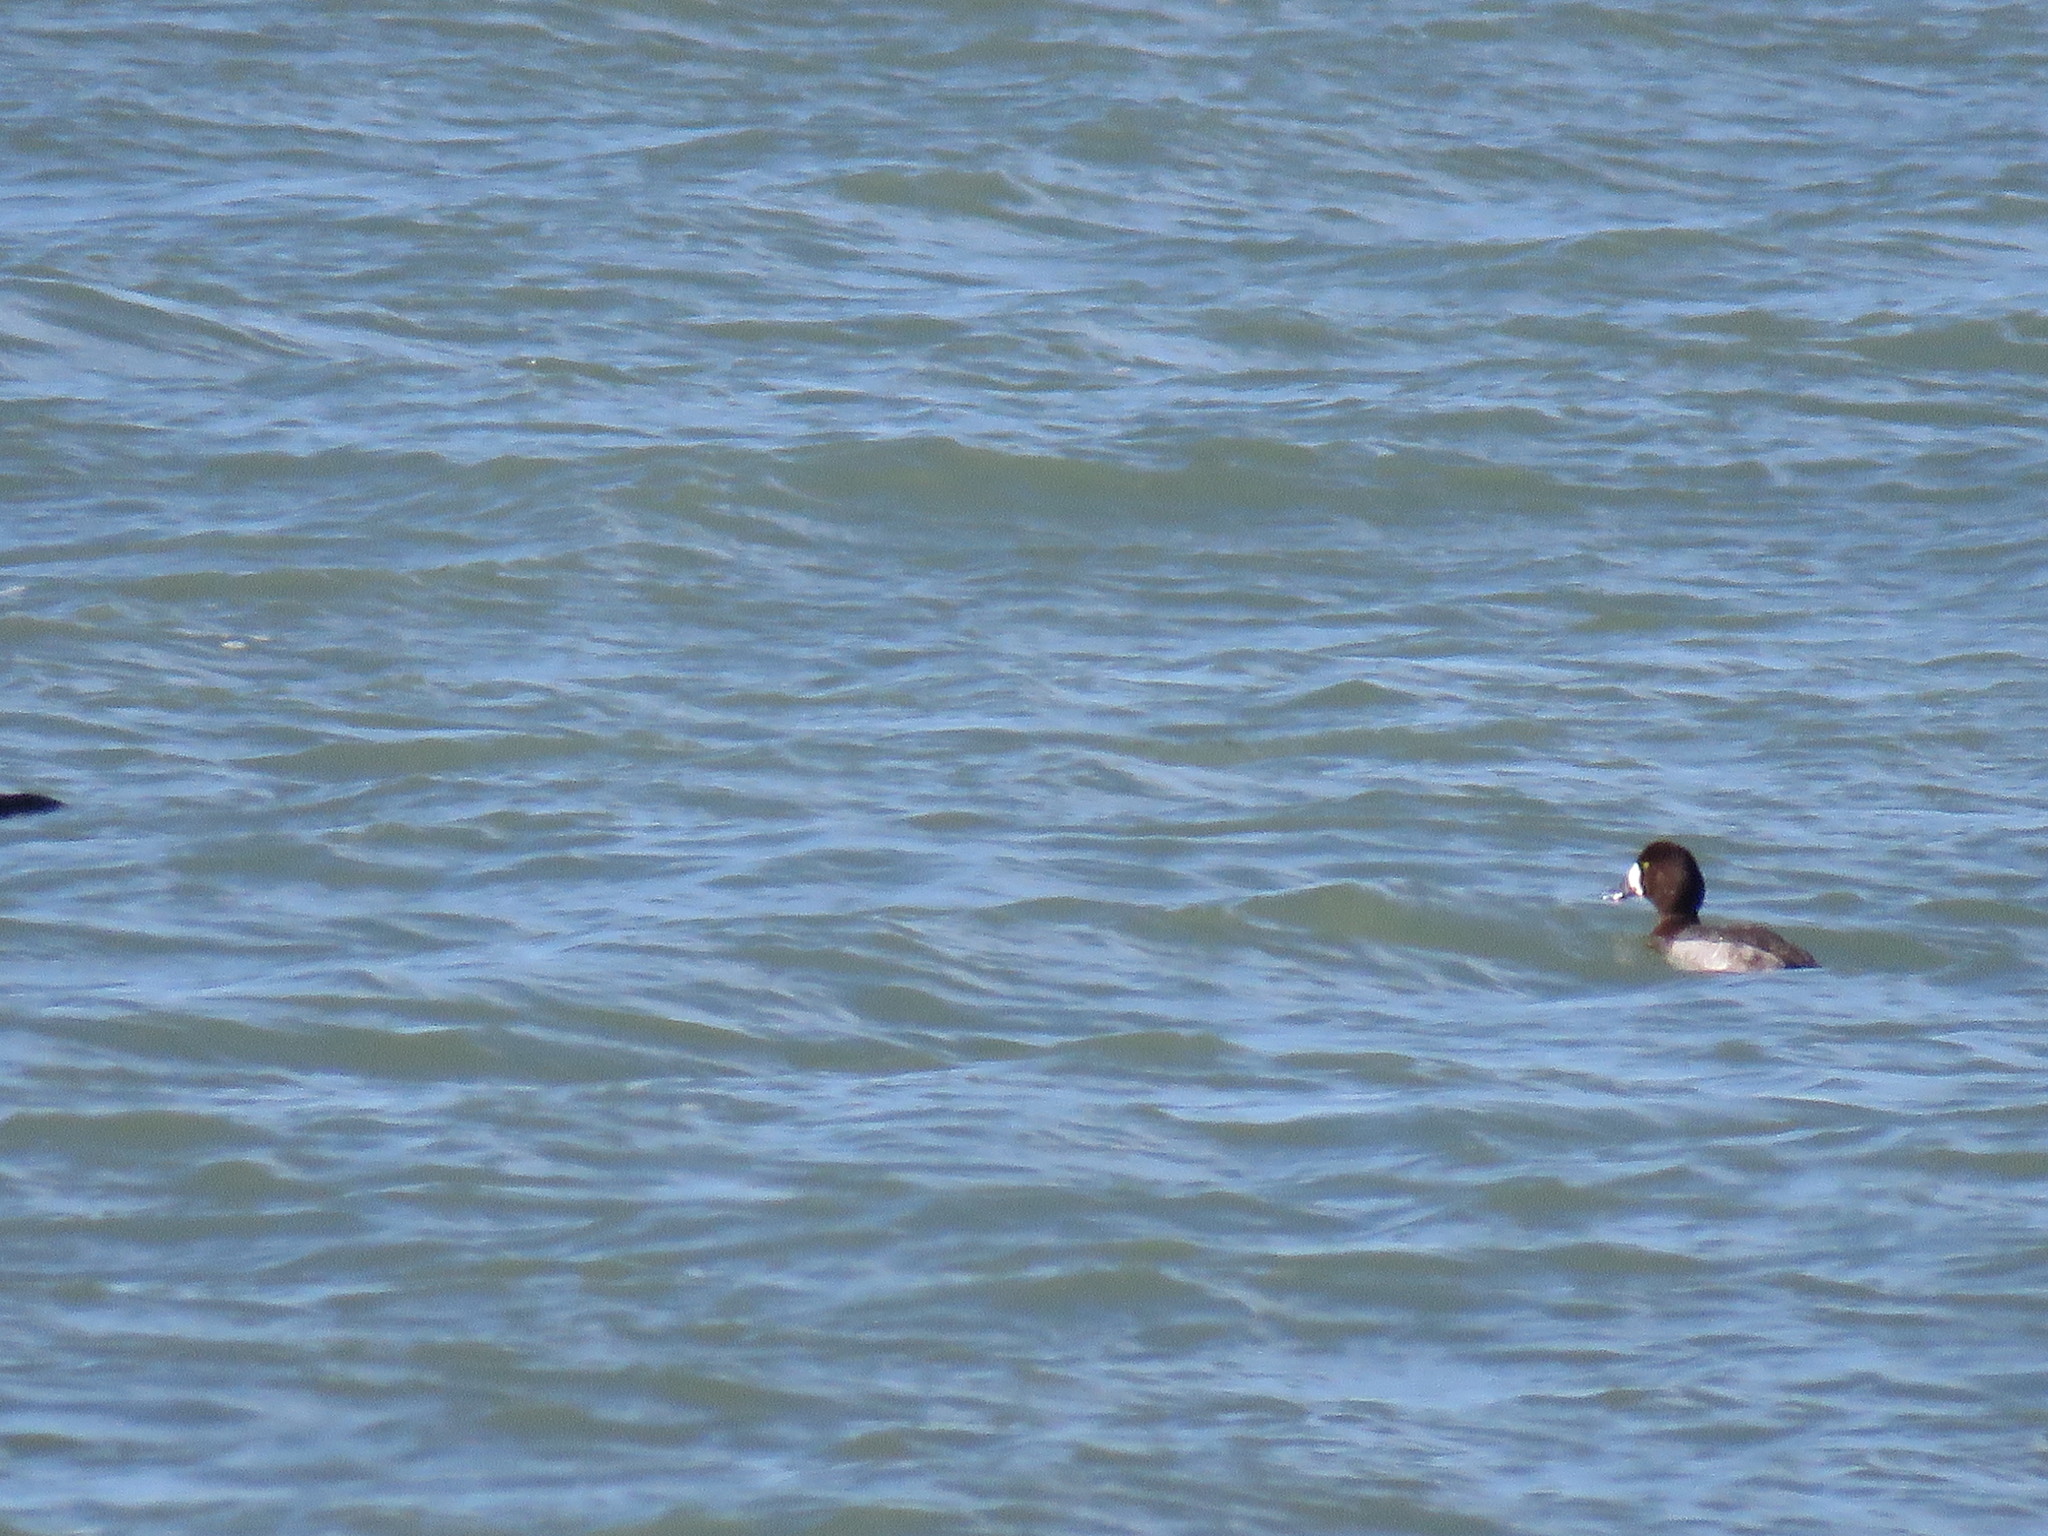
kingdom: Animalia
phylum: Chordata
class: Aves
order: Anseriformes
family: Anatidae
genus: Aythya
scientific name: Aythya marila
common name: Greater scaup
